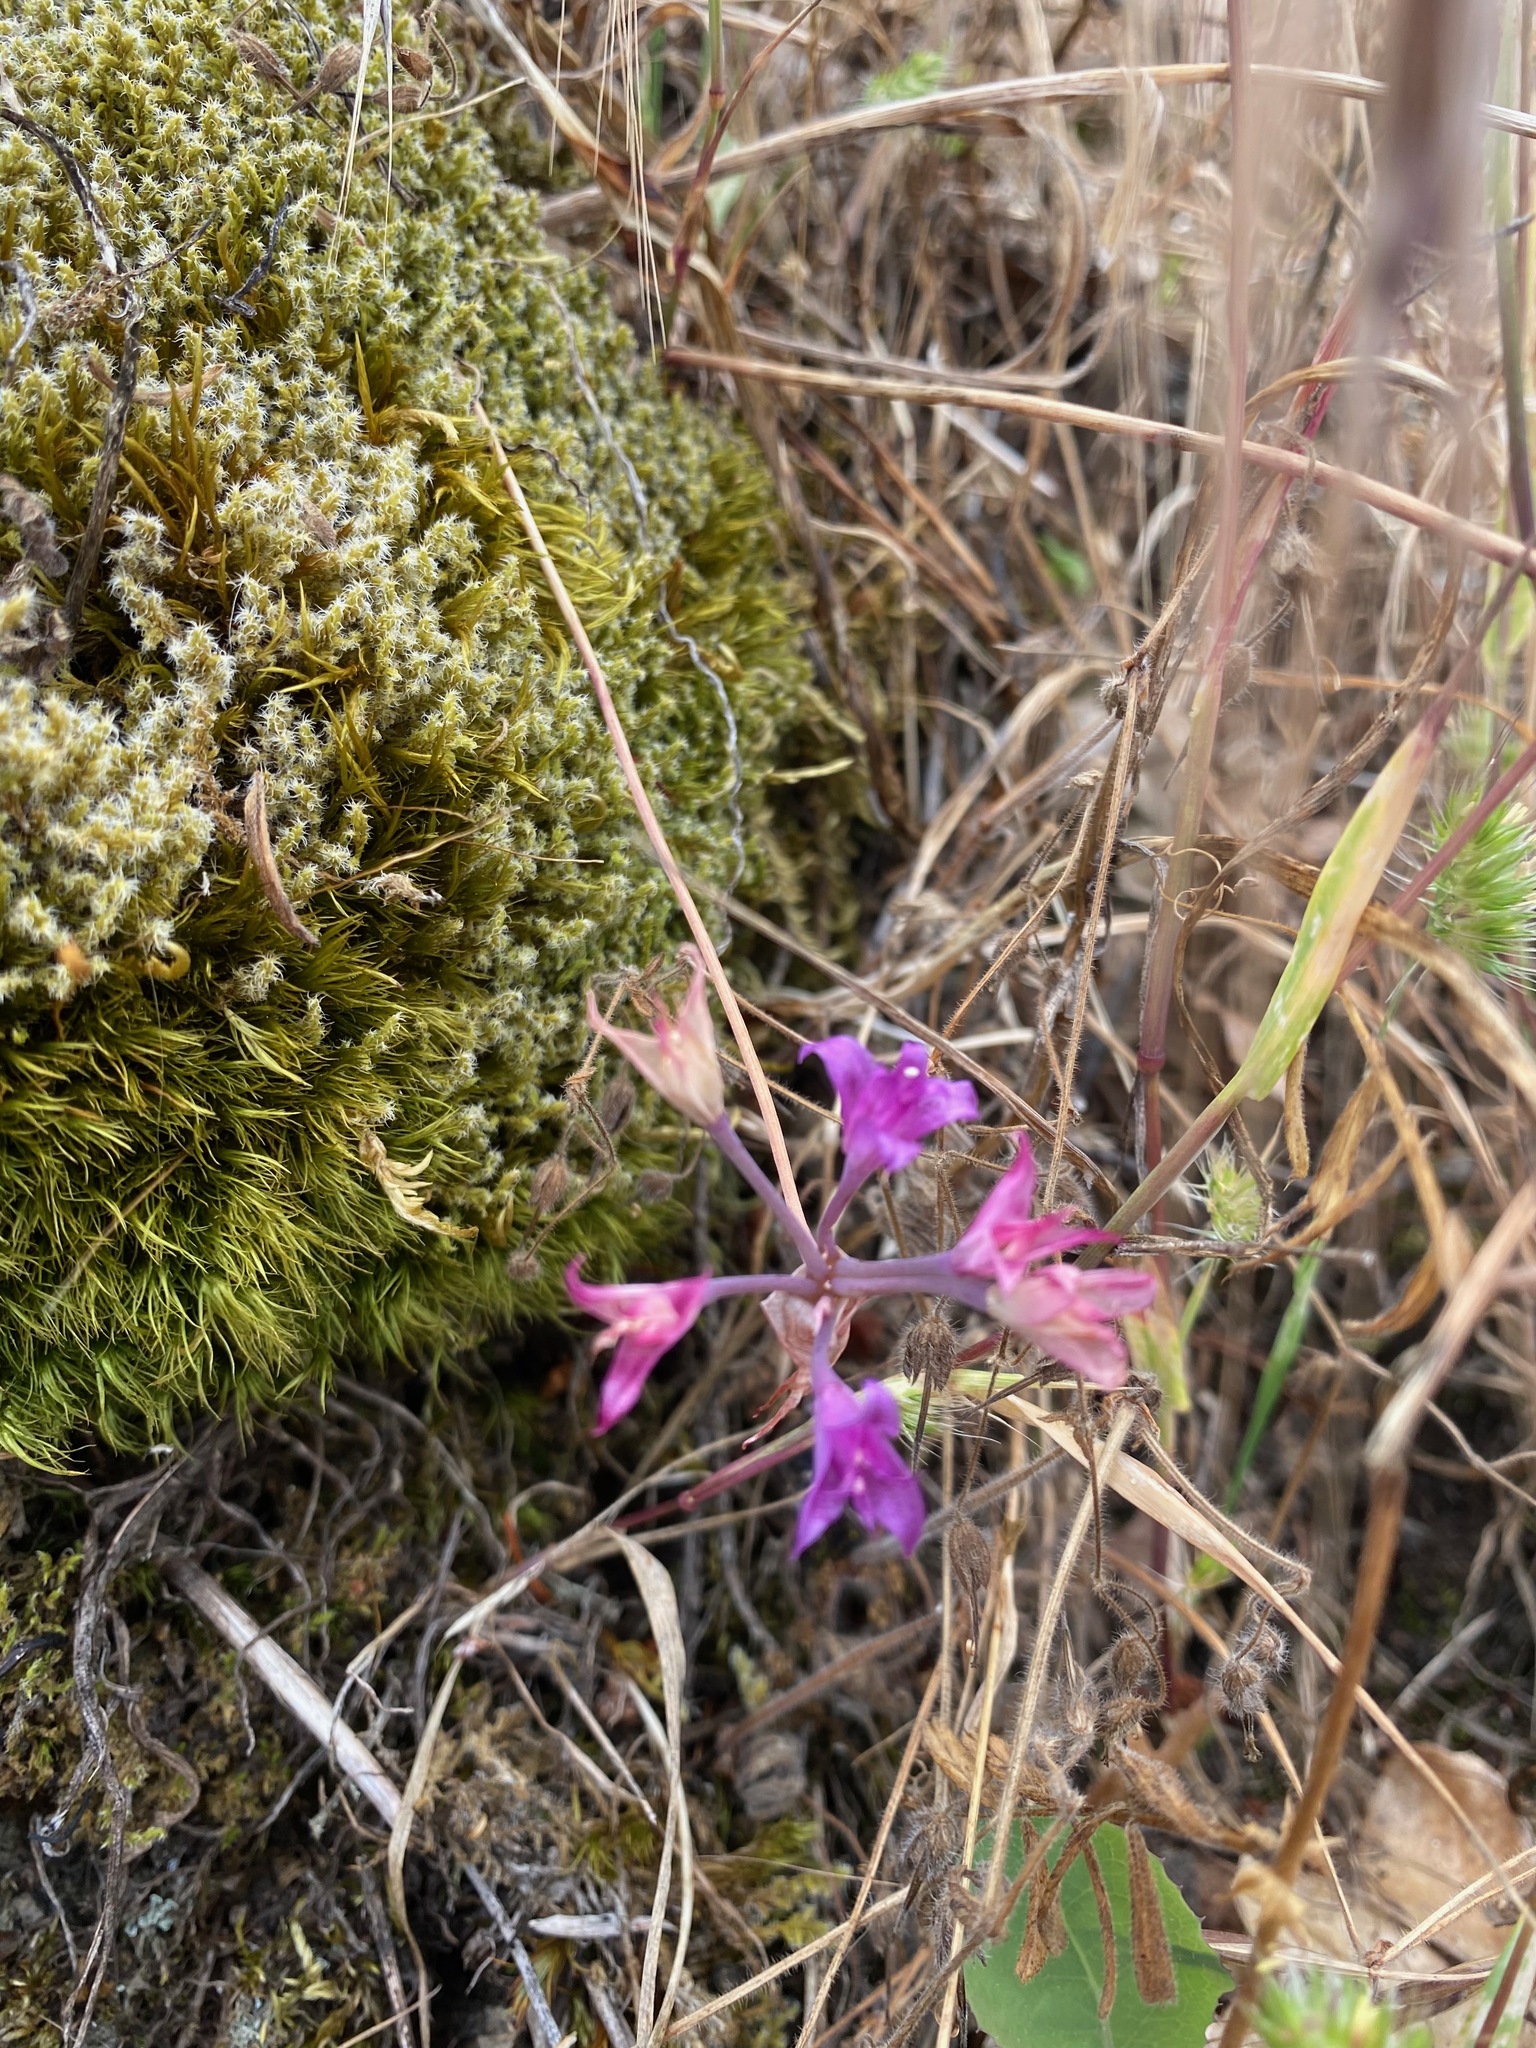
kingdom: Plantae
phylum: Tracheophyta
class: Liliopsida
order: Asparagales
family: Amaryllidaceae
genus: Allium
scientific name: Allium acuminatum
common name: Hooker's onion
